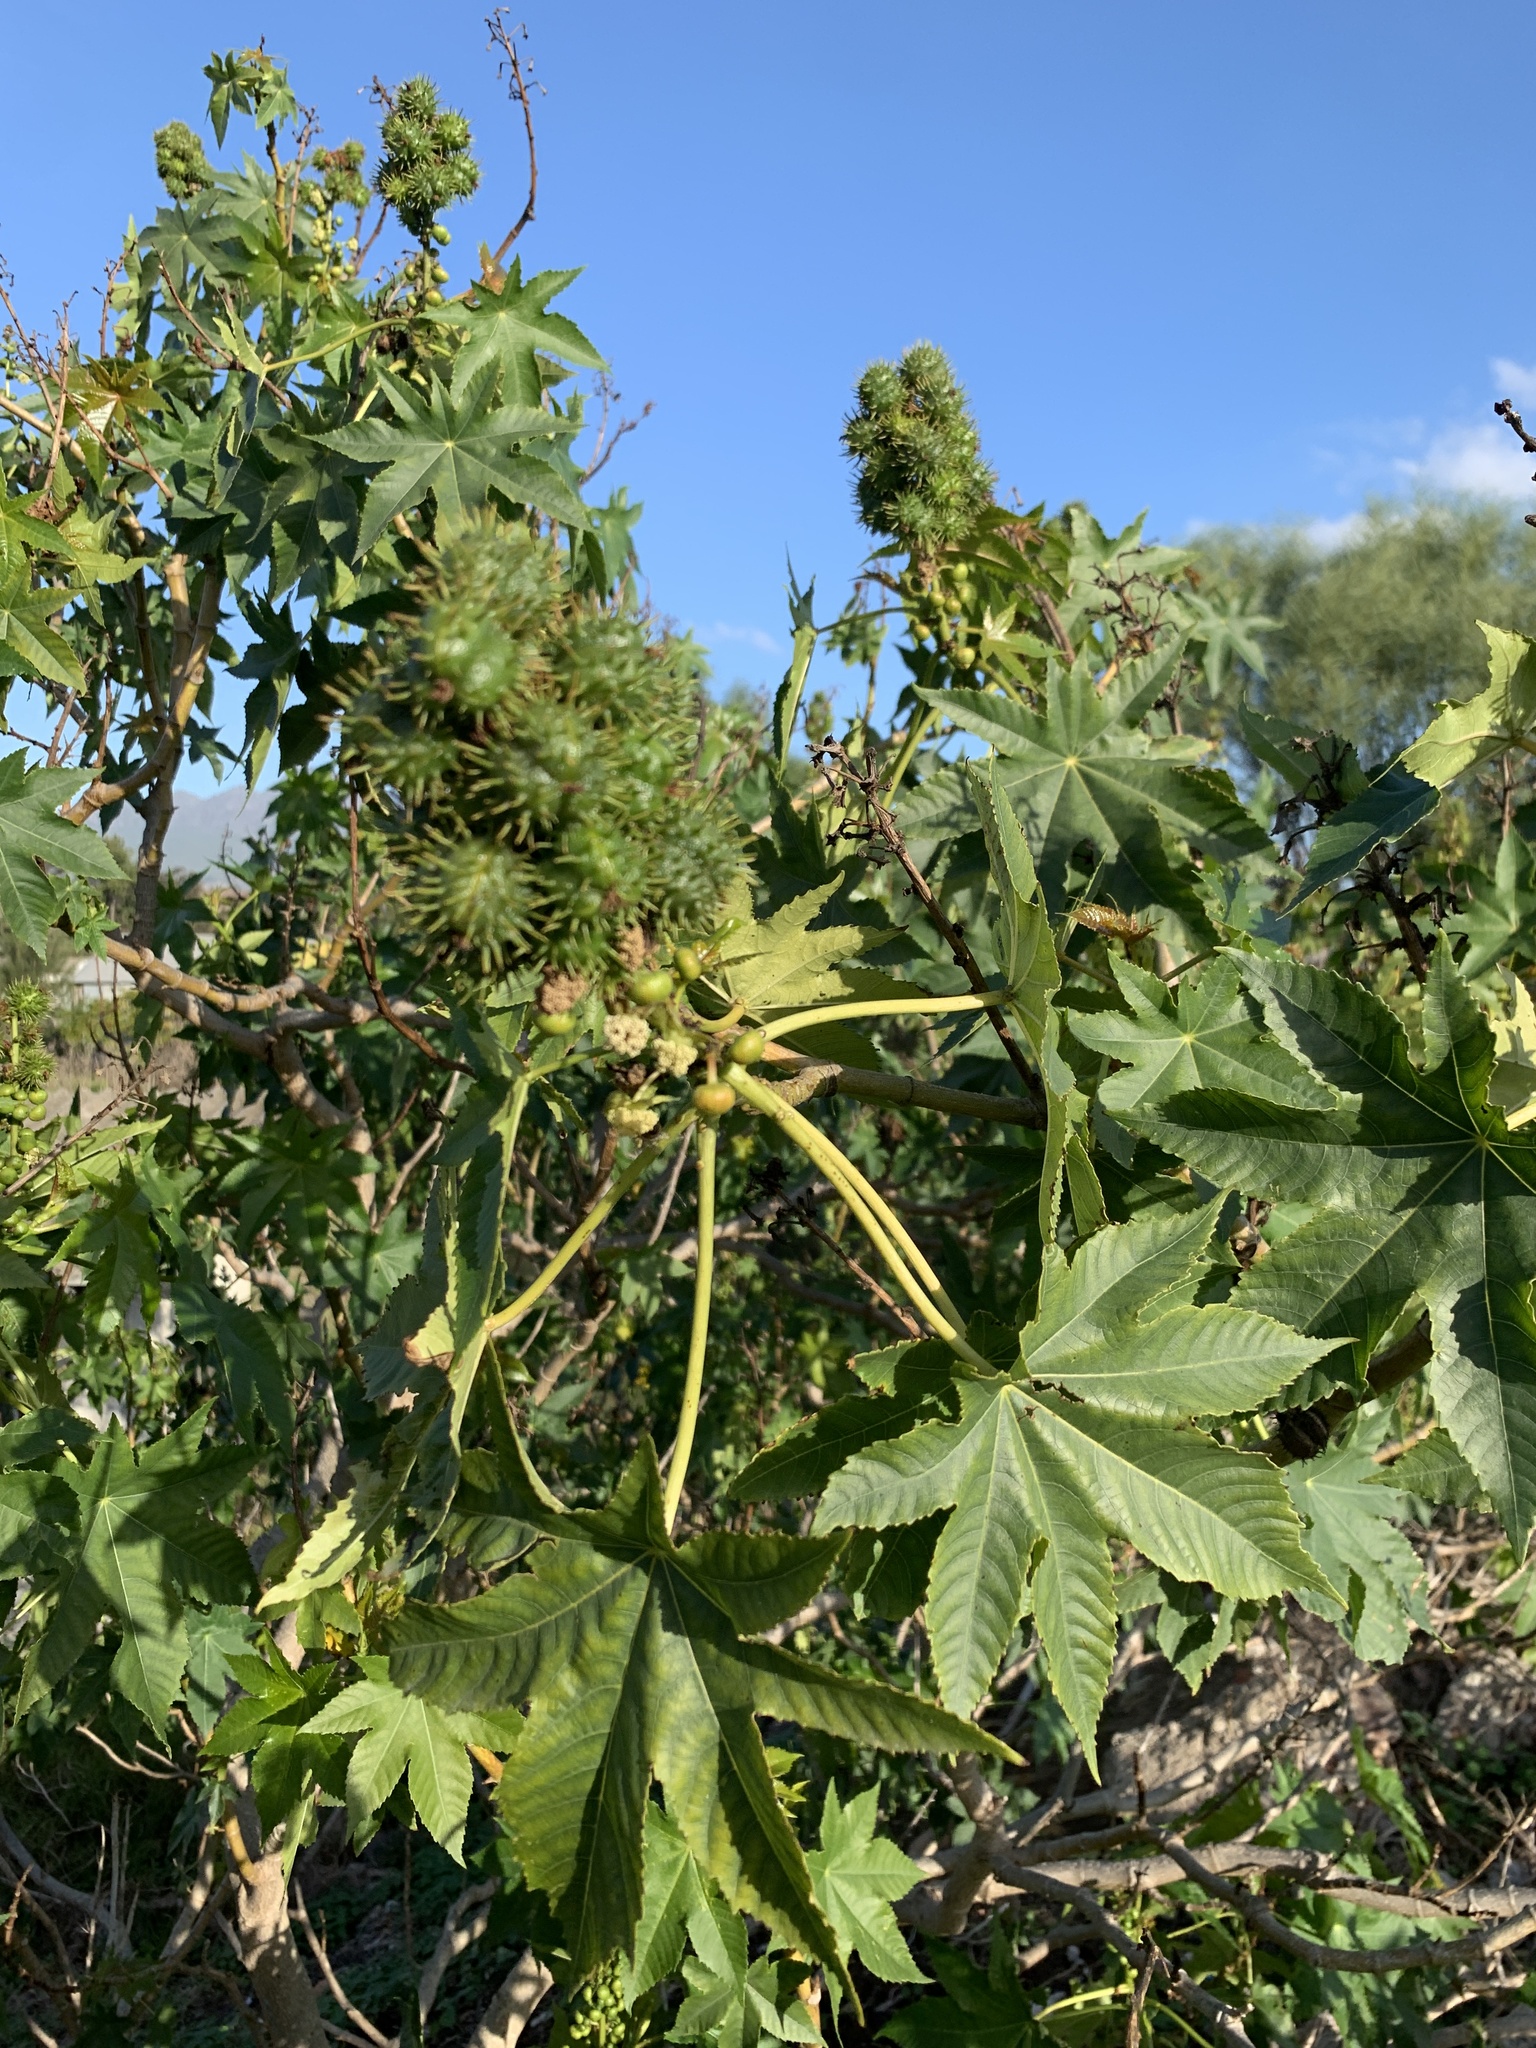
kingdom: Plantae
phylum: Tracheophyta
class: Magnoliopsida
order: Malpighiales
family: Euphorbiaceae
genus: Ricinus
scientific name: Ricinus communis
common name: Castor-oil-plant
